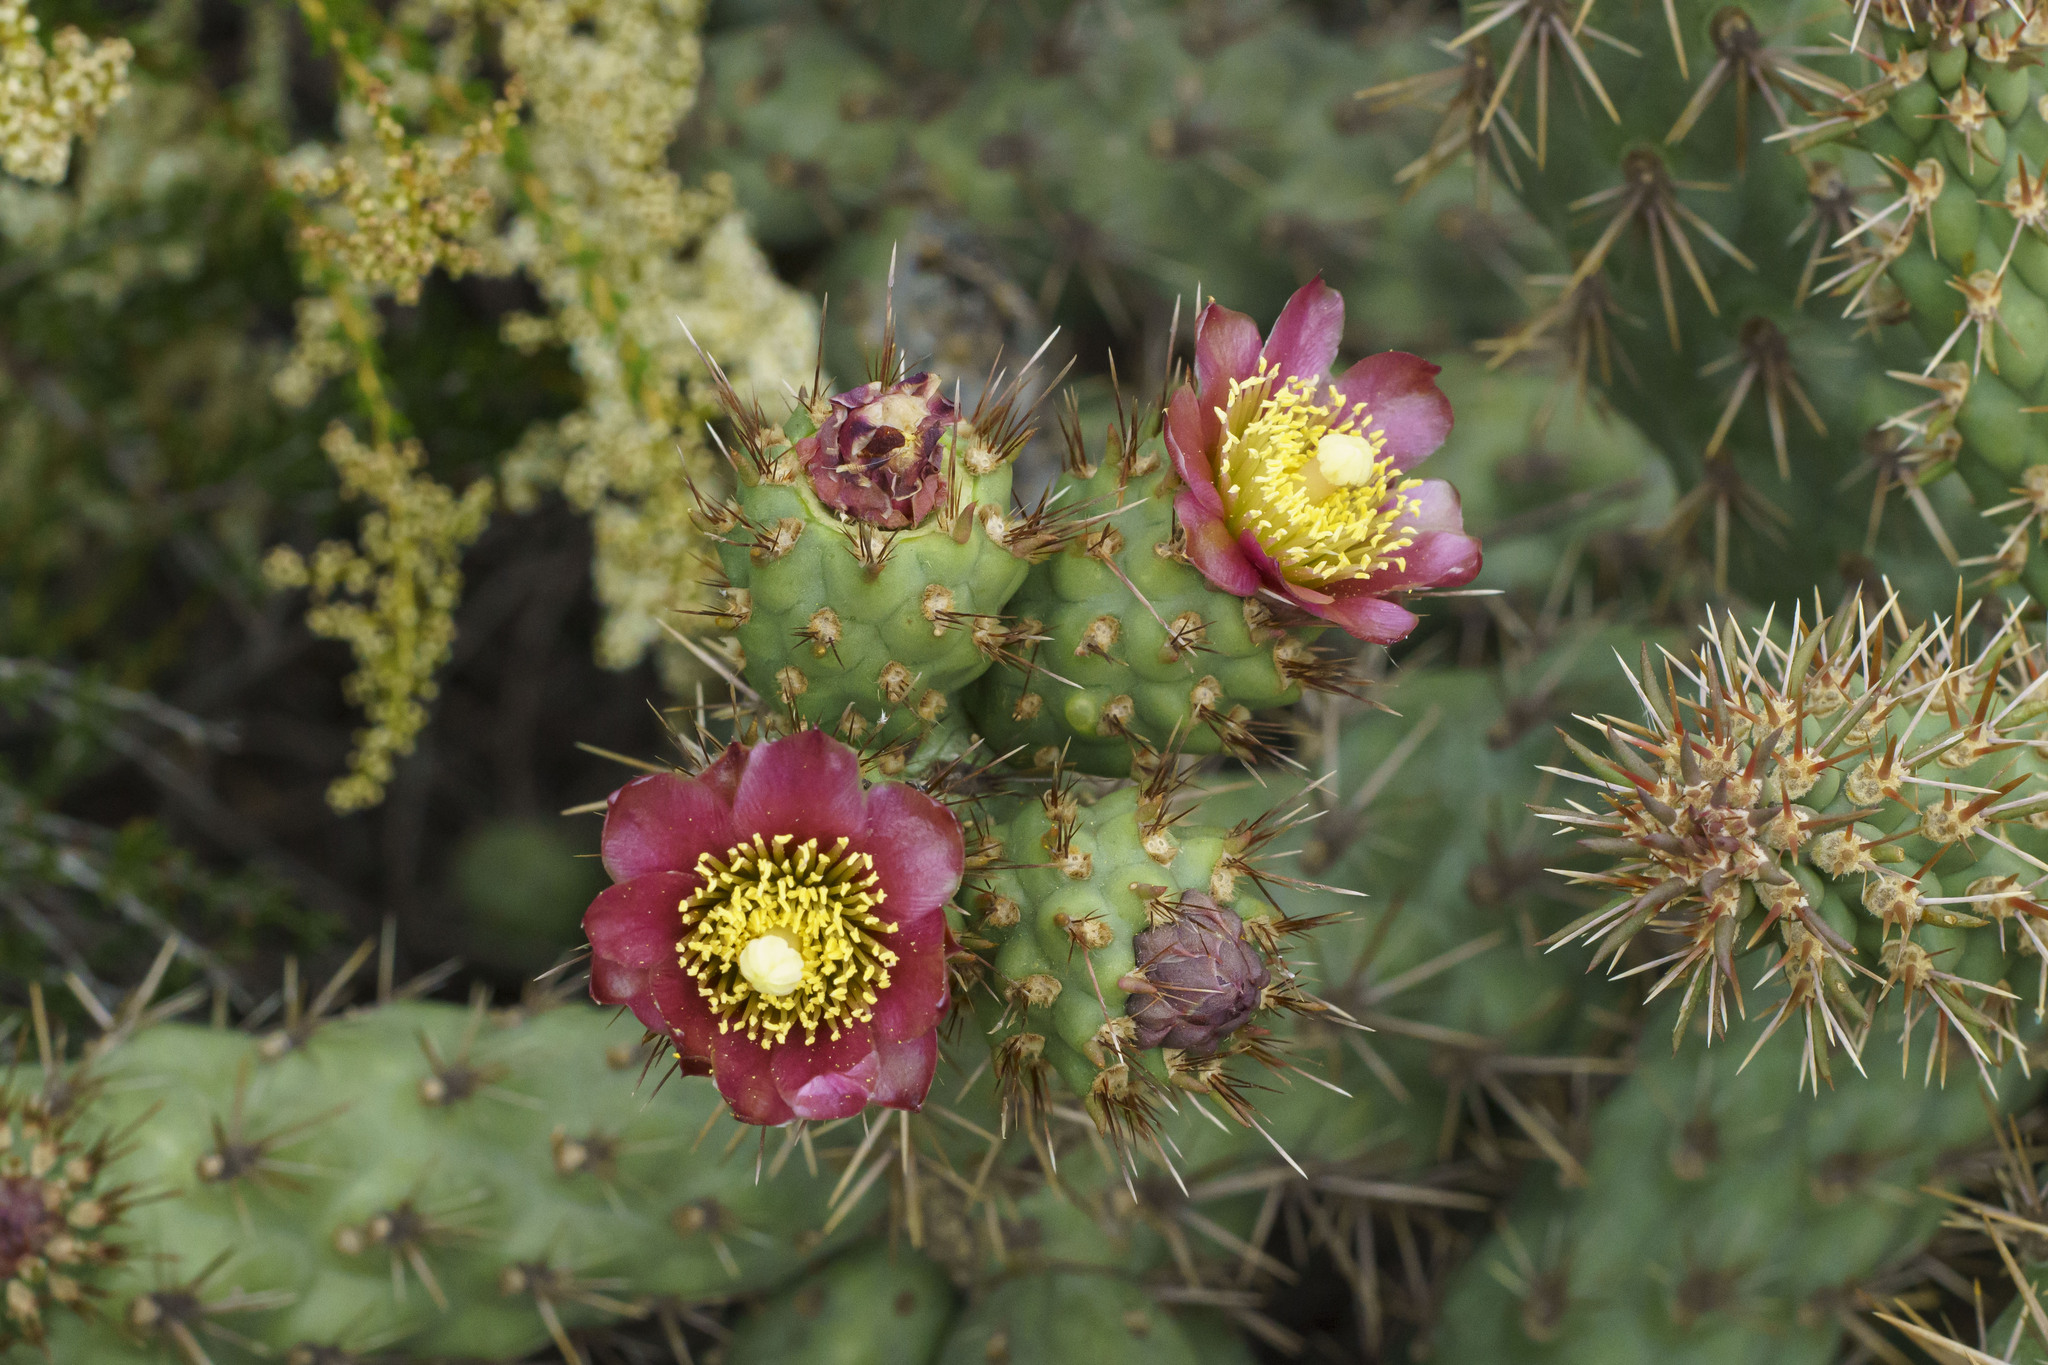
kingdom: Plantae
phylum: Tracheophyta
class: Magnoliopsida
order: Caryophyllales
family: Cactaceae
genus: Cylindropuntia
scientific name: Cylindropuntia prolifera
